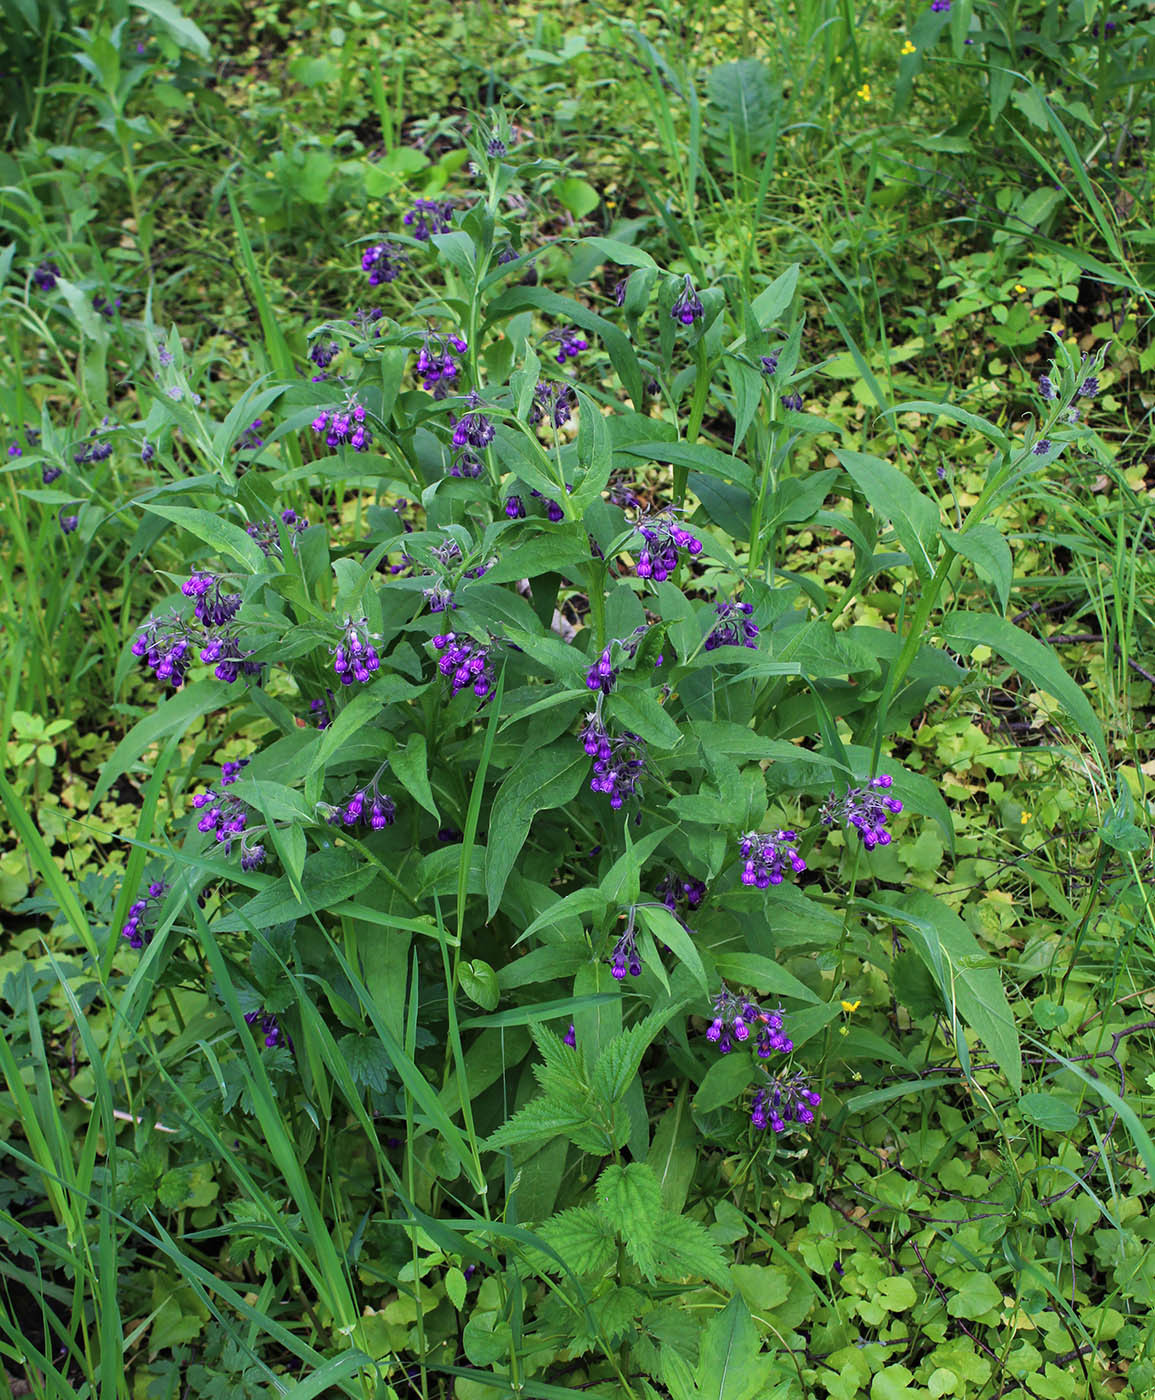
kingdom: Plantae
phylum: Tracheophyta
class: Magnoliopsida
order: Boraginales
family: Boraginaceae
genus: Symphytum
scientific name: Symphytum officinale
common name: Common comfrey
